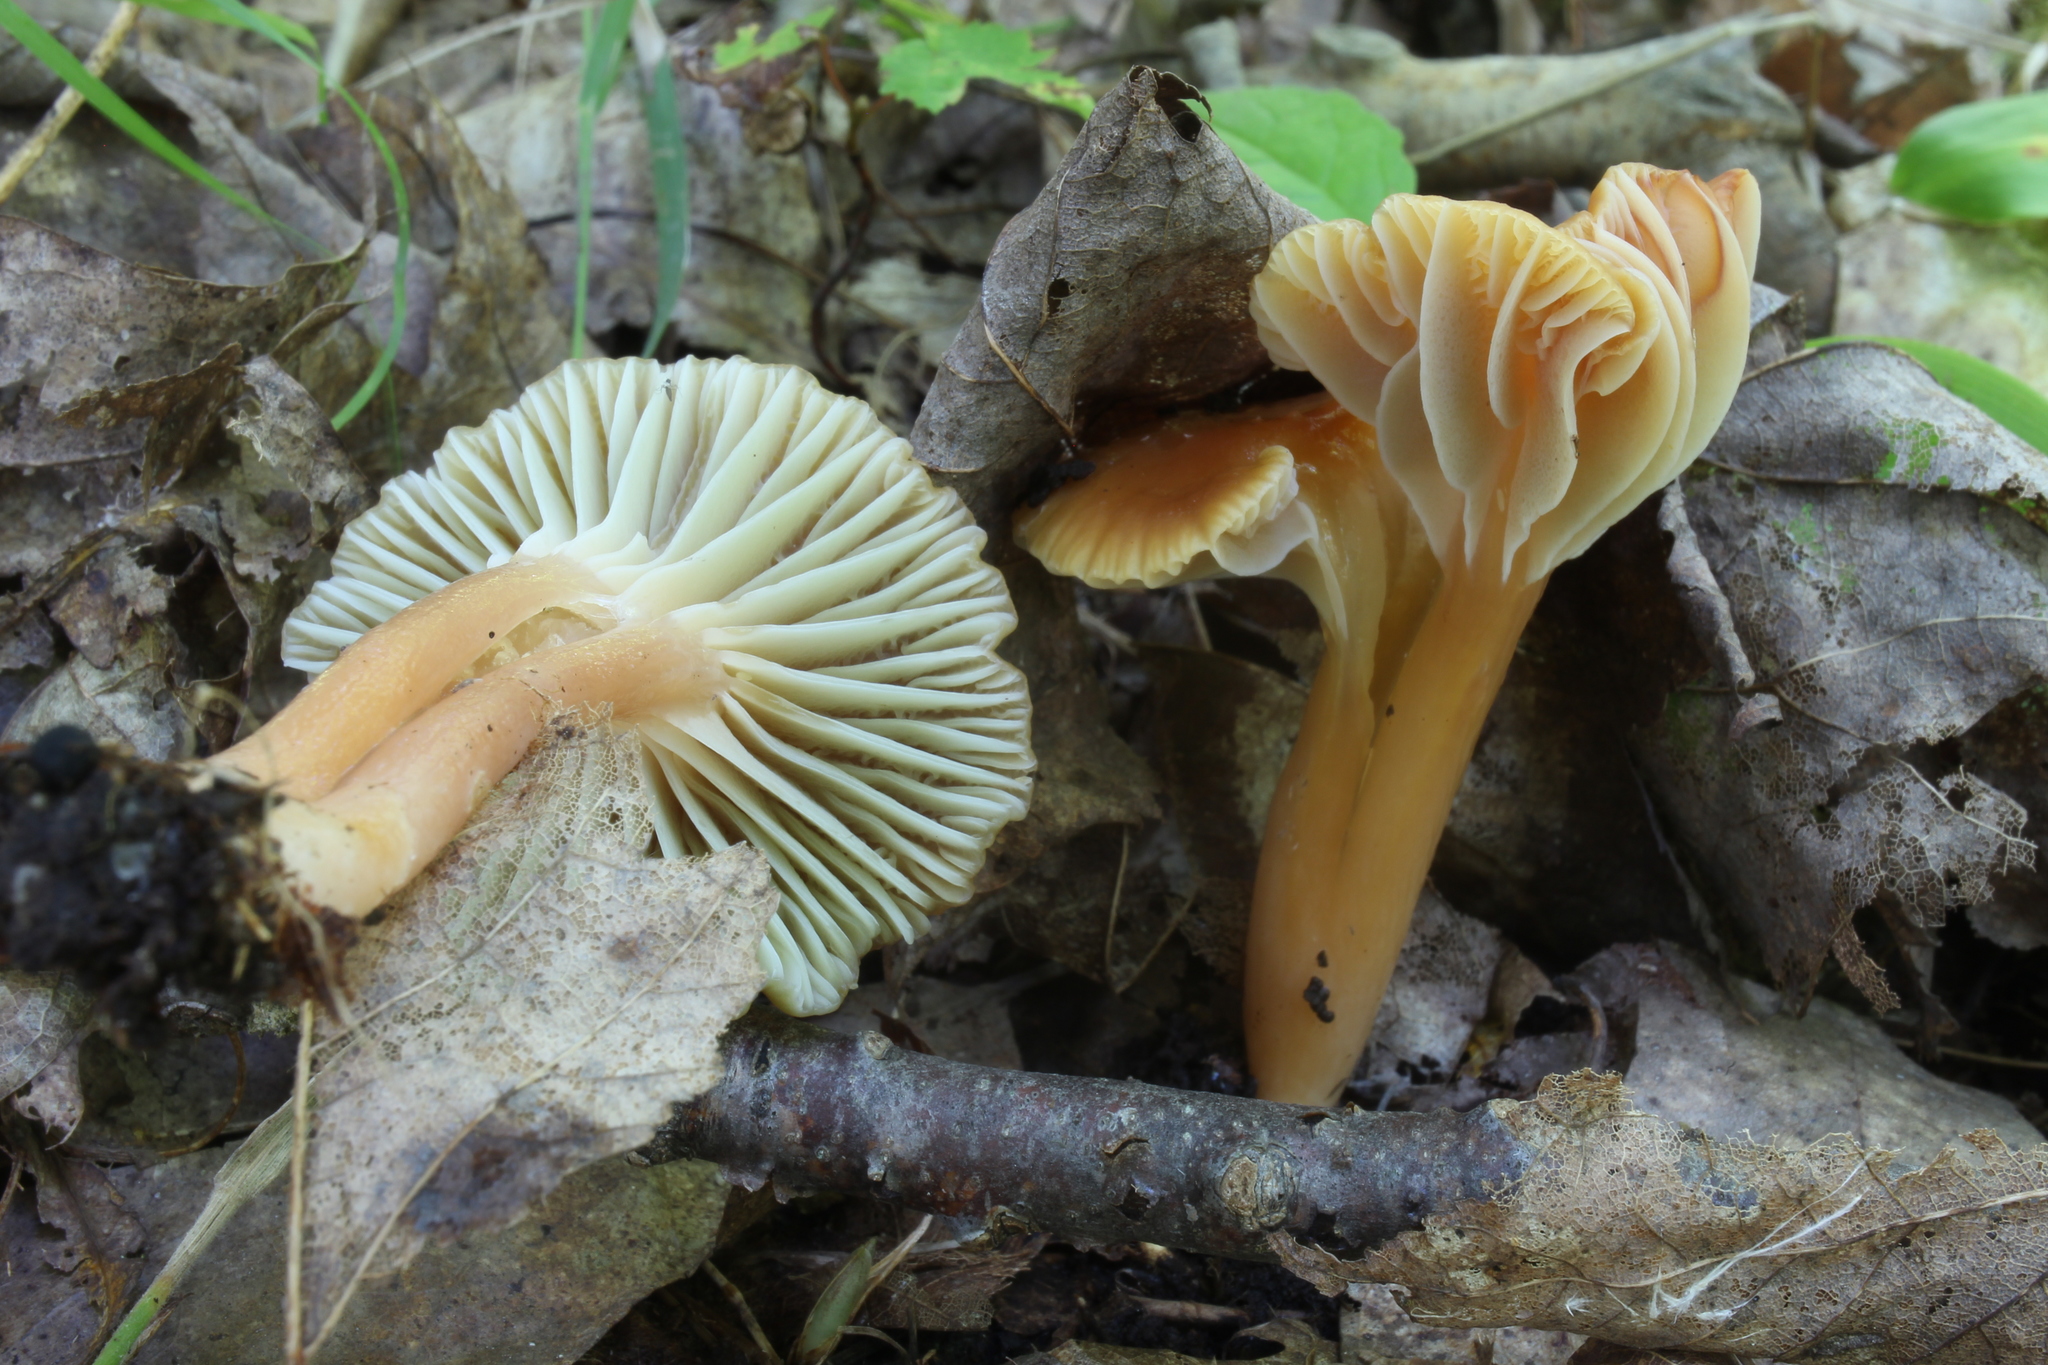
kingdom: Fungi
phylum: Basidiomycota
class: Agaricomycetes
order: Agaricales
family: Hygrophoraceae
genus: Gliophorus
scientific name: Gliophorus psittacinus
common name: Parrot wax-cap
